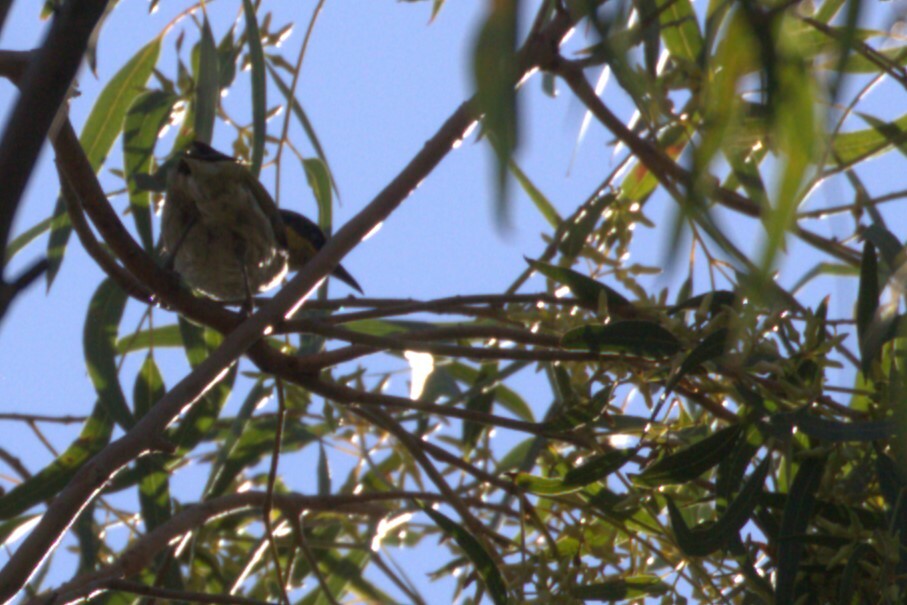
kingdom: Animalia
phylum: Chordata
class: Aves
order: Passeriformes
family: Meliphagidae
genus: Gavicalis
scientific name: Gavicalis fasciogularis
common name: Mangrove honeyeater
